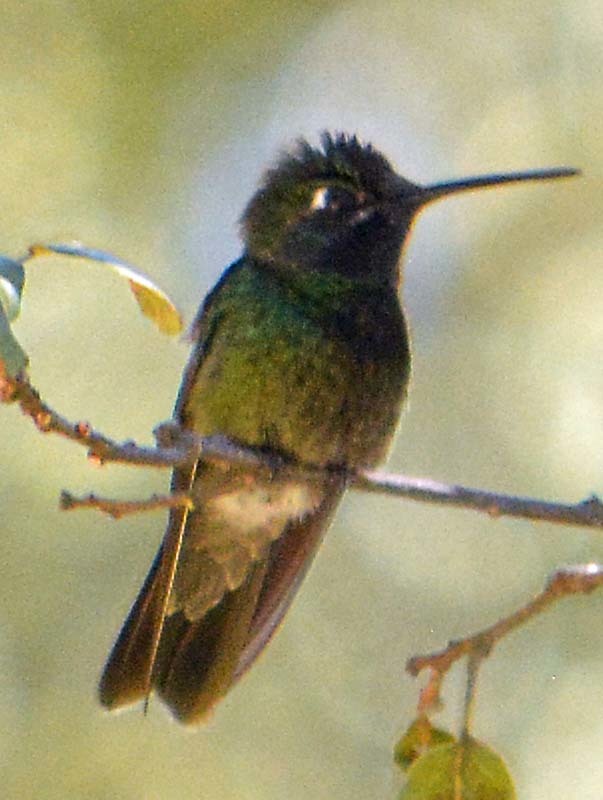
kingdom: Animalia
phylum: Chordata
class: Aves
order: Apodiformes
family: Trochilidae
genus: Eugenes
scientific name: Eugenes fulgens
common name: Magnificent hummingbird
